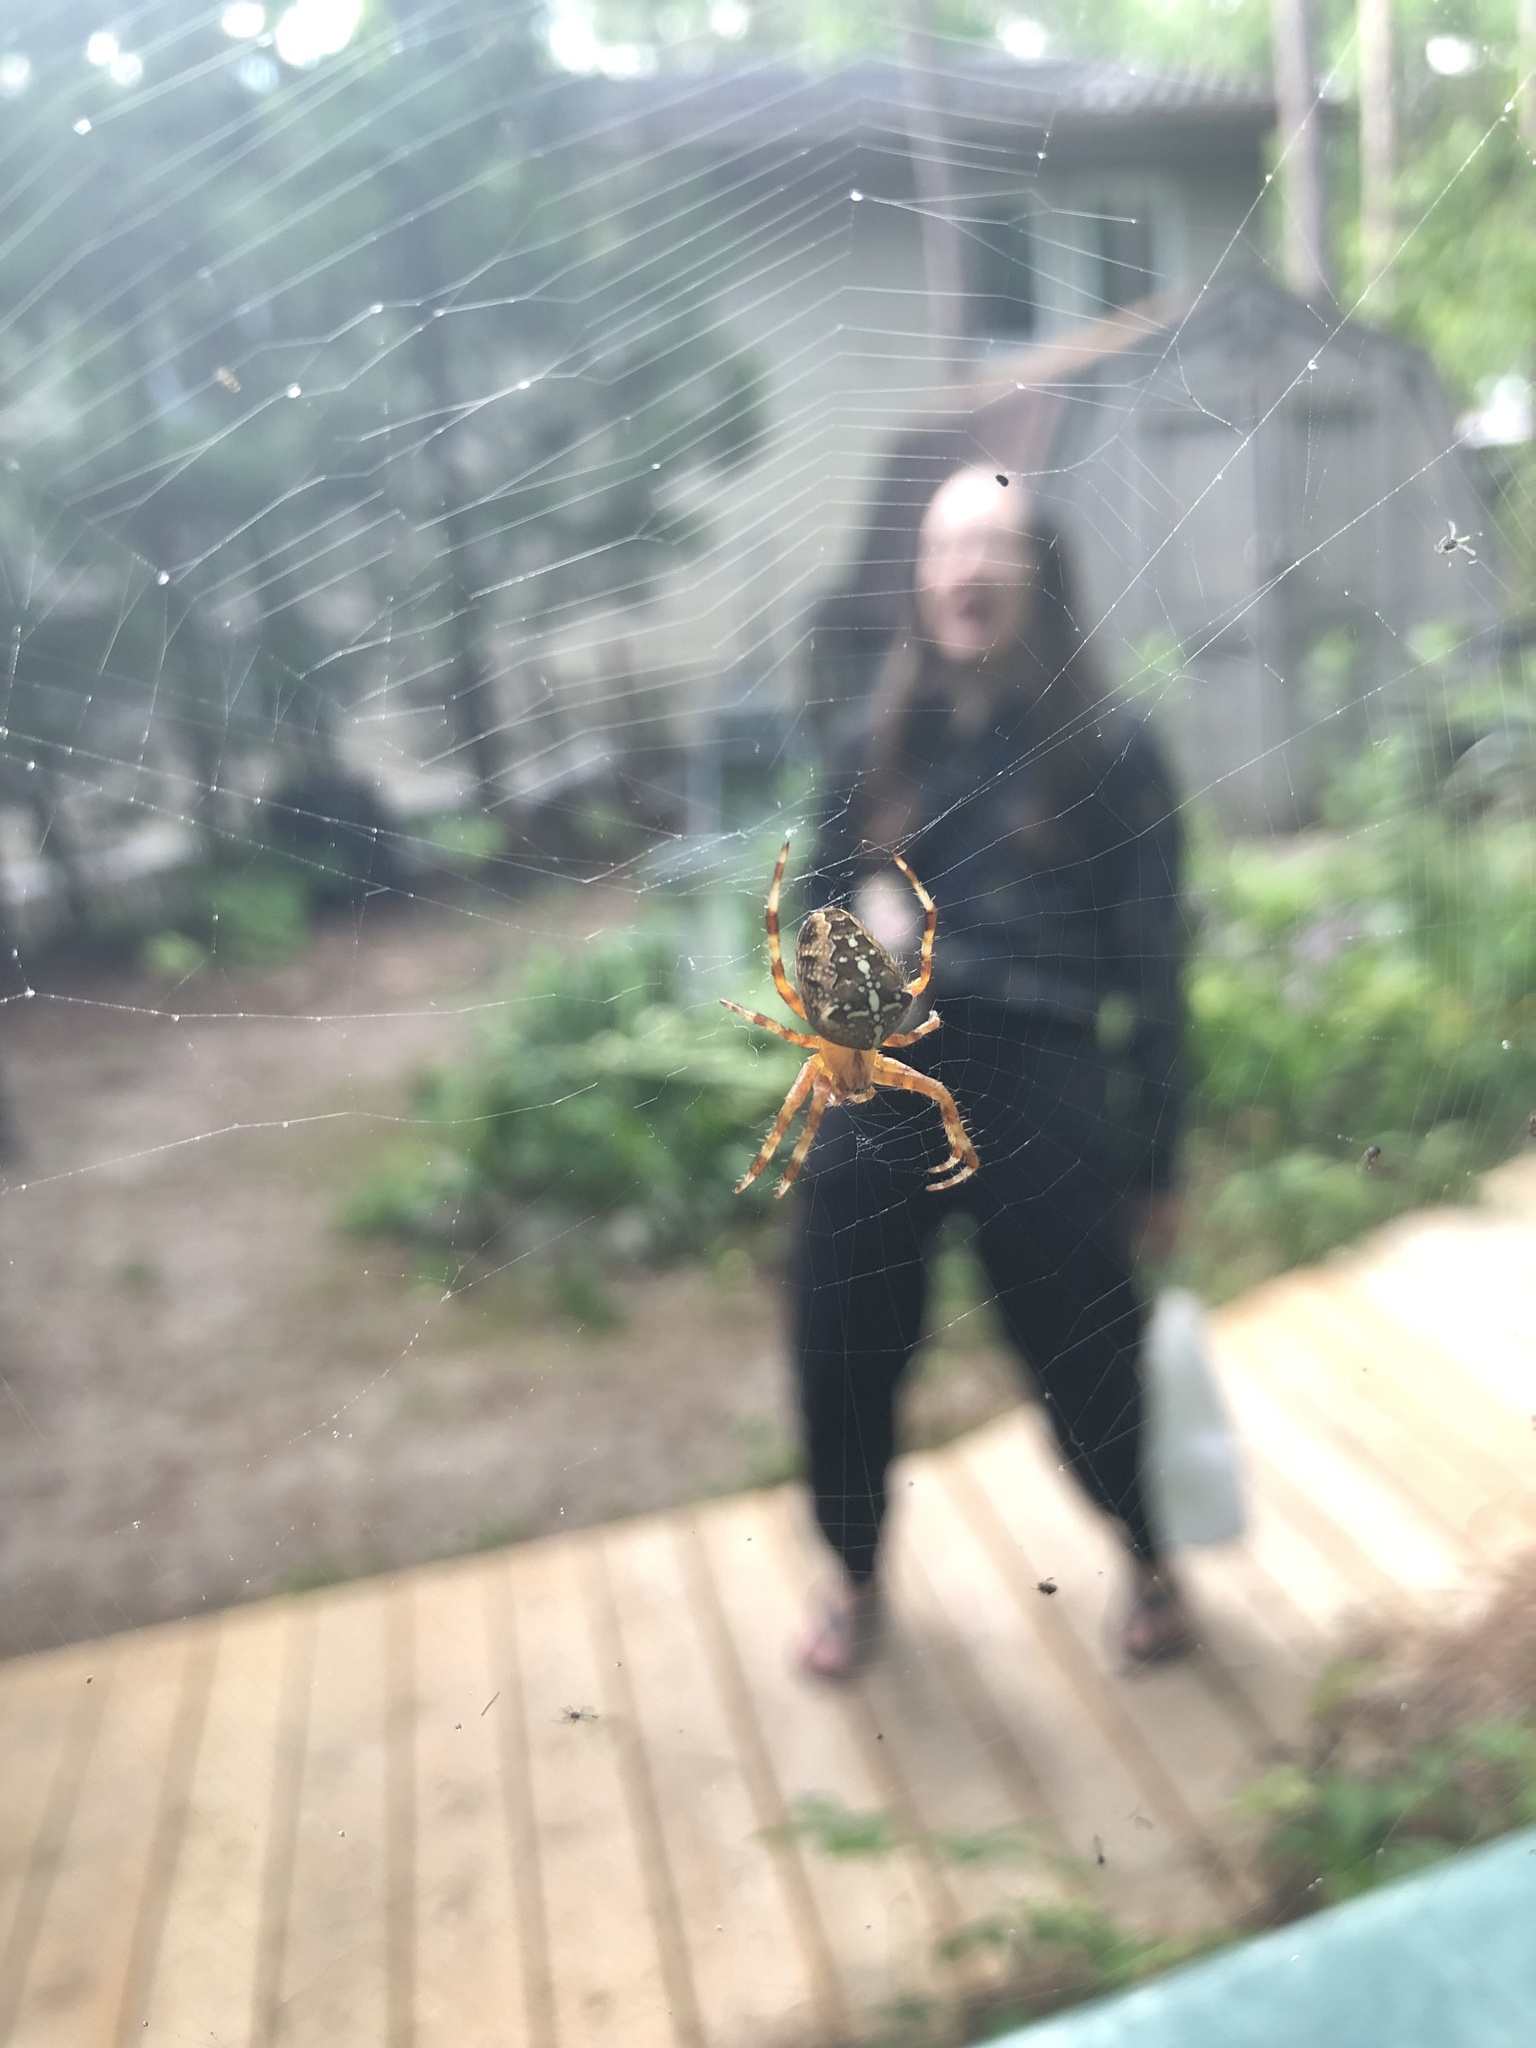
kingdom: Animalia
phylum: Arthropoda
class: Arachnida
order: Araneae
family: Araneidae
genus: Araneus
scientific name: Araneus diadematus
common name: Cross orbweaver
